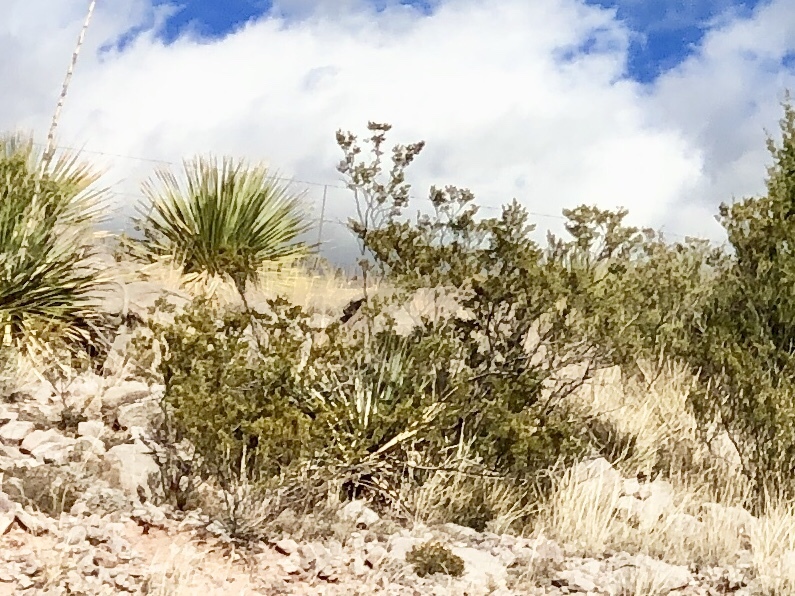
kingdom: Plantae
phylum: Tracheophyta
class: Magnoliopsida
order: Zygophyllales
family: Zygophyllaceae
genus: Larrea
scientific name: Larrea tridentata
